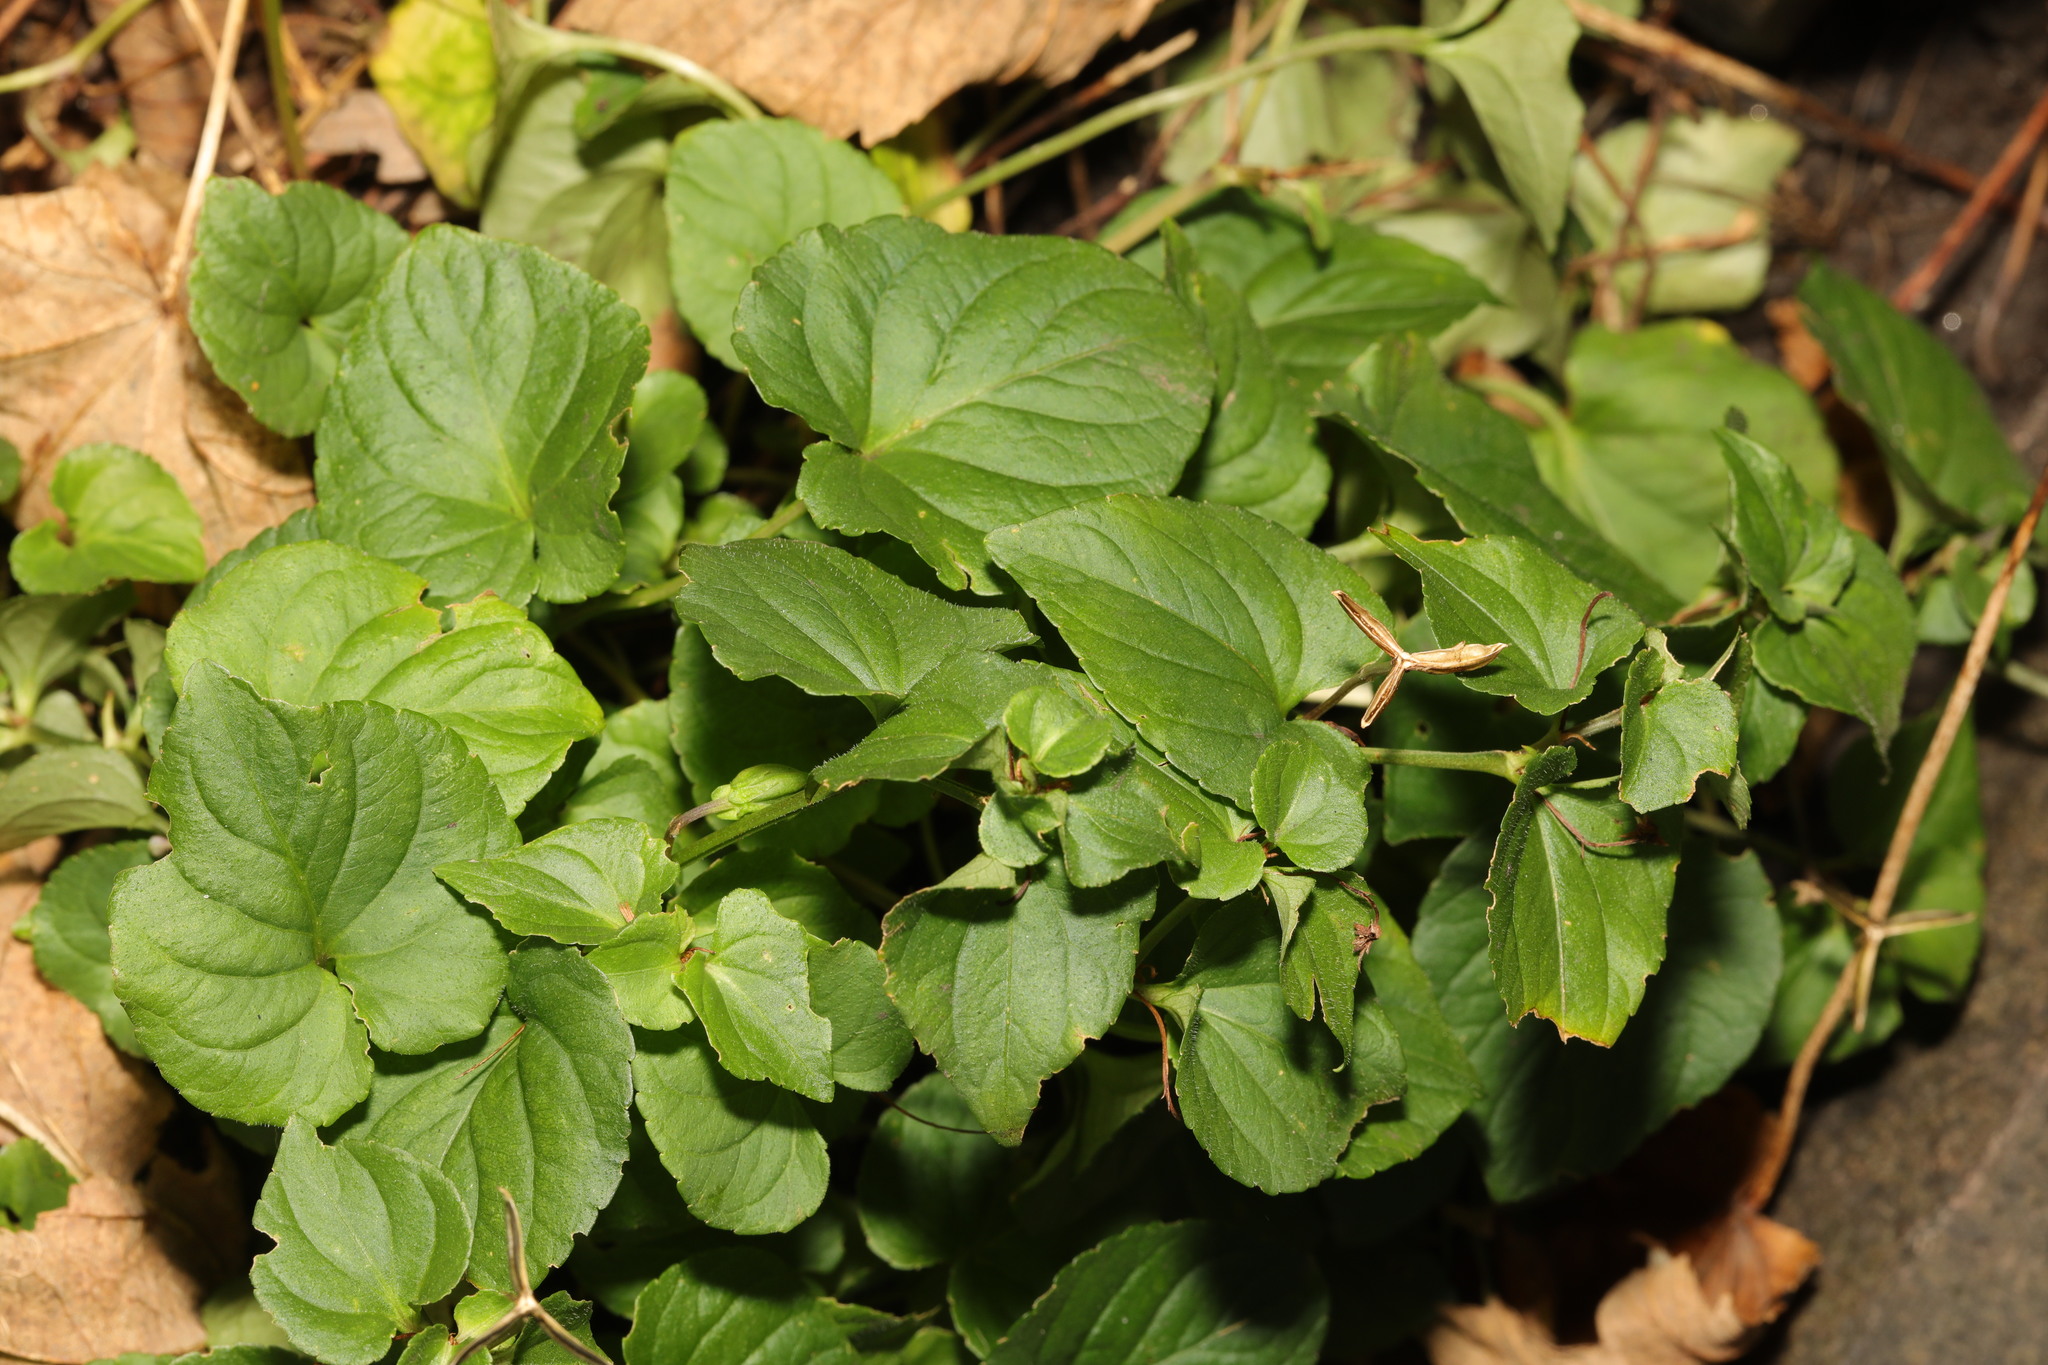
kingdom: Plantae
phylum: Tracheophyta
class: Magnoliopsida
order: Malpighiales
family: Violaceae
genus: Viola
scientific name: Viola riviniana
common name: Common dog-violet
